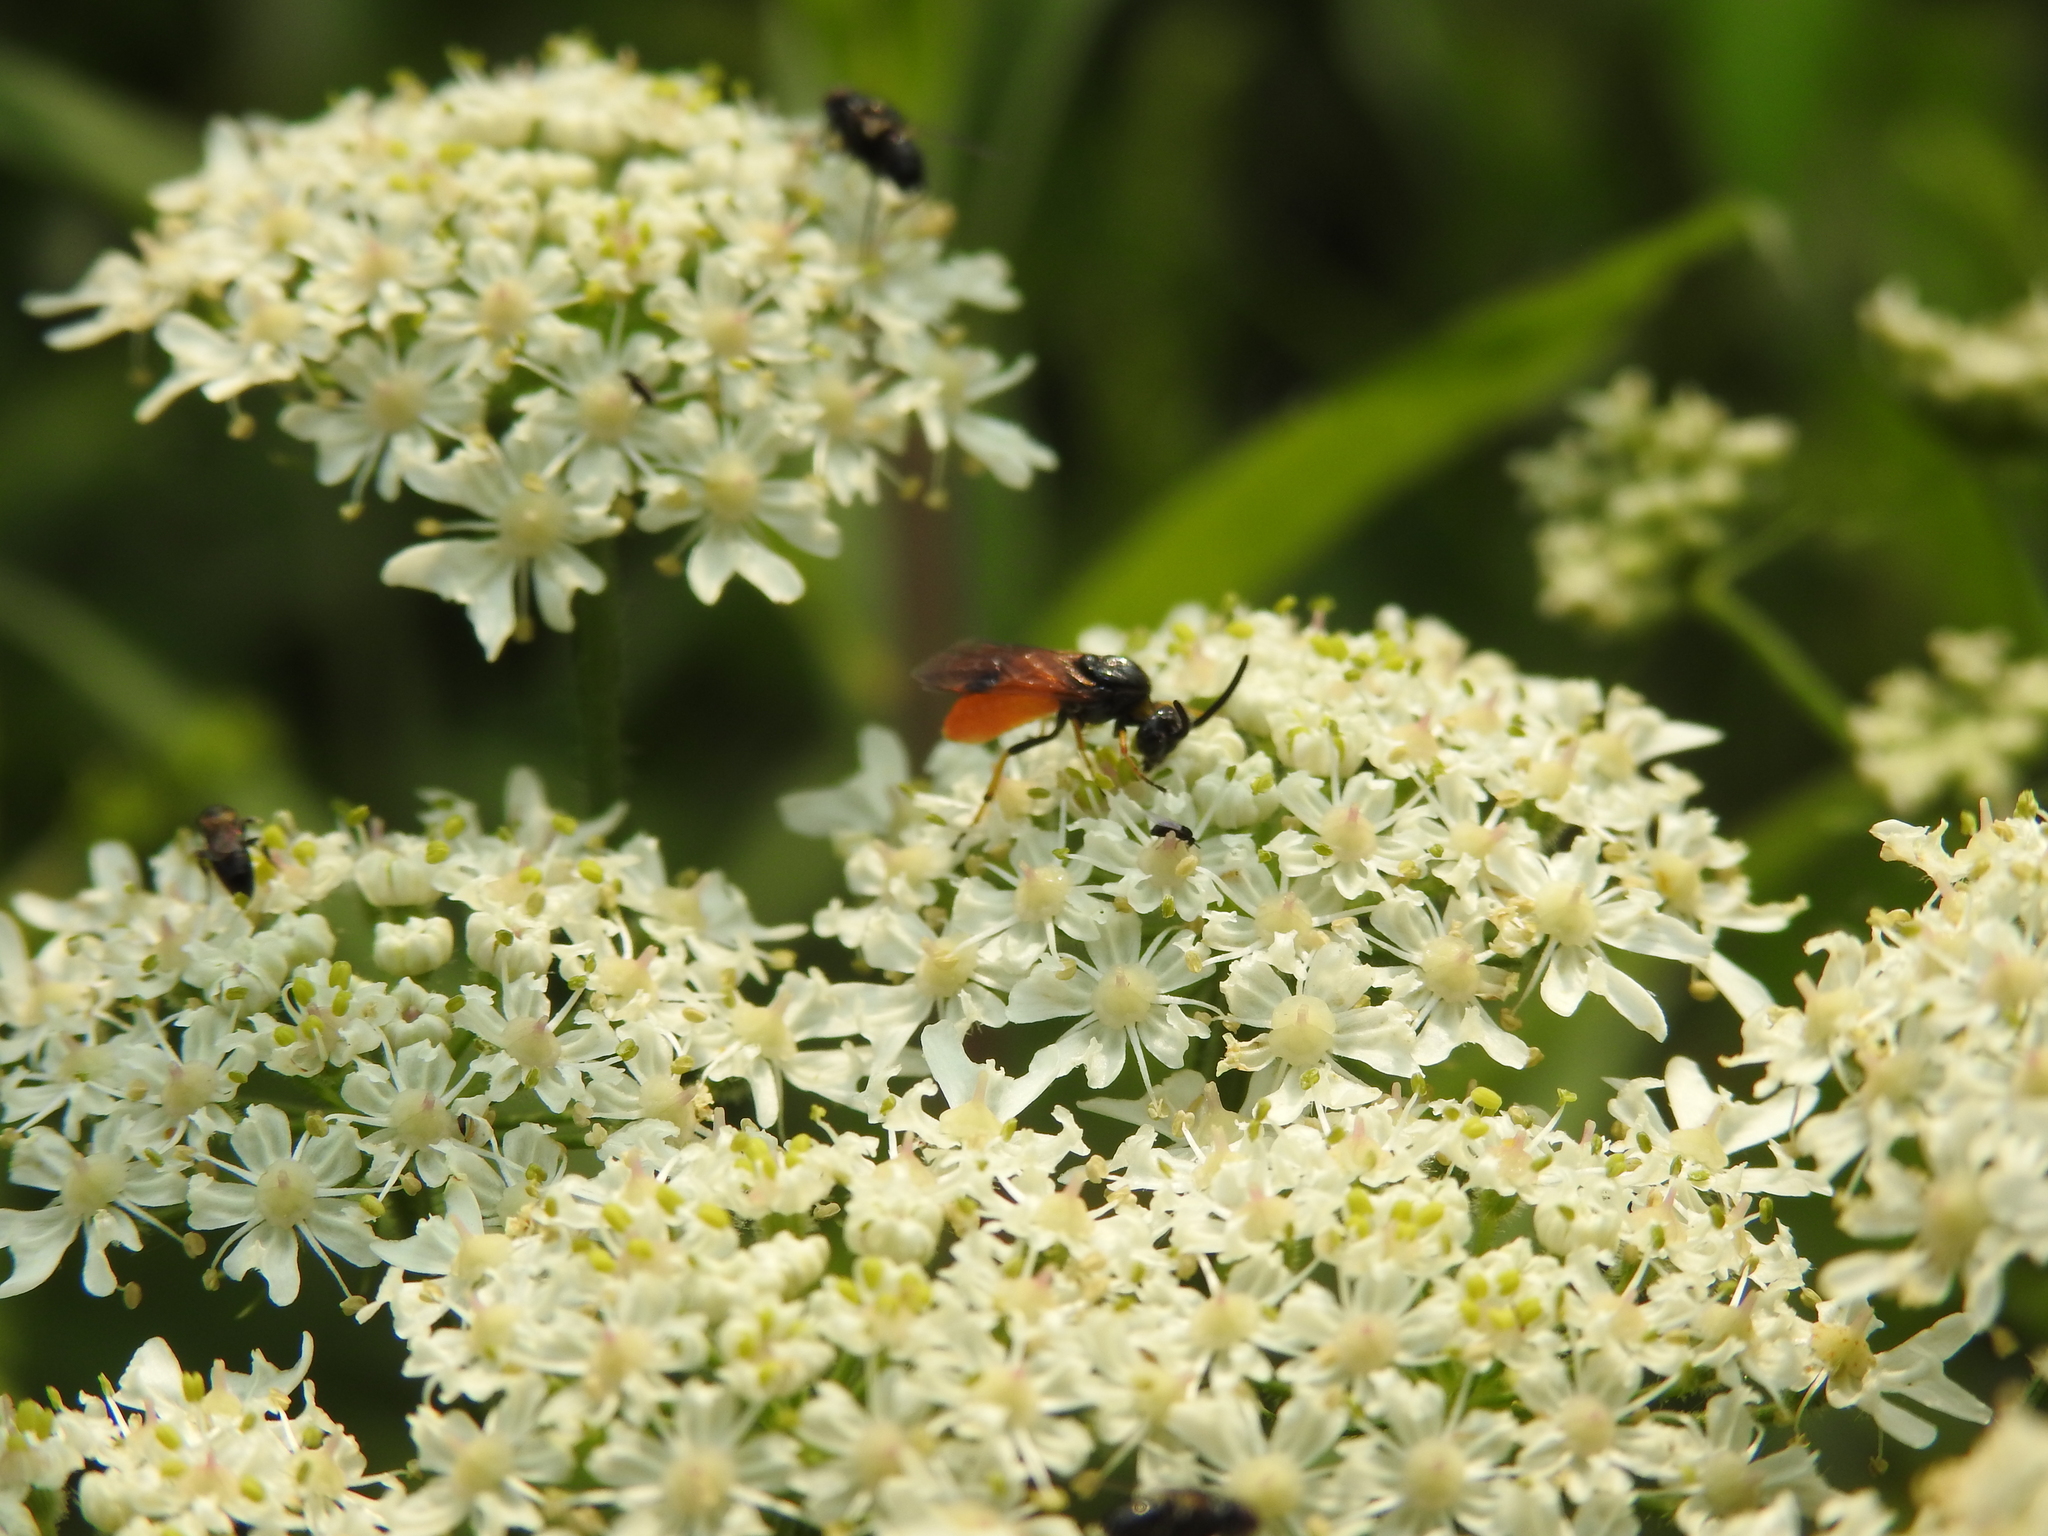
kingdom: Animalia
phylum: Arthropoda
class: Insecta
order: Hymenoptera
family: Argidae
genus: Arge
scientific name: Arge melanochra
